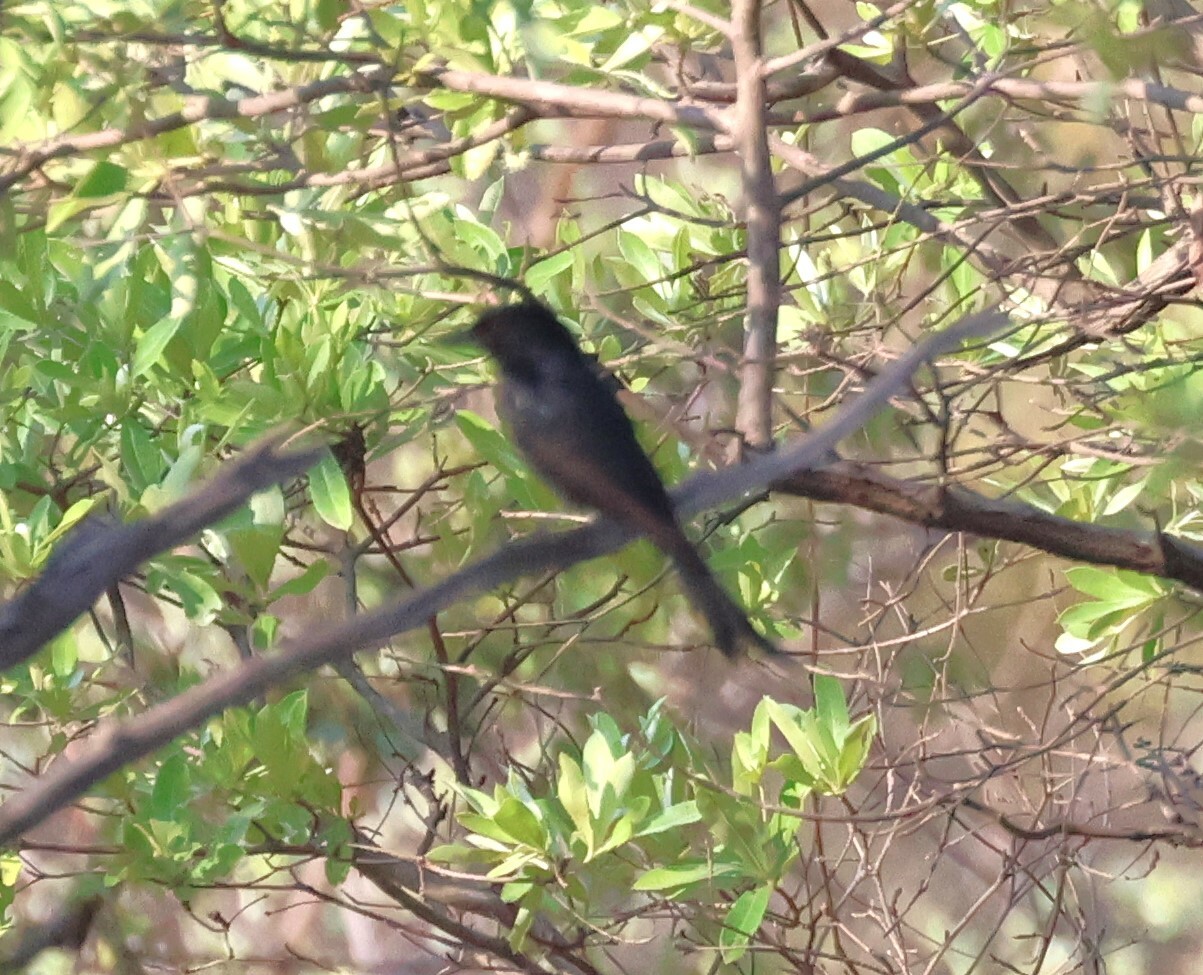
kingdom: Animalia
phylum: Chordata
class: Aves
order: Passeriformes
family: Dicruridae
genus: Dicrurus
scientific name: Dicrurus adsimilis
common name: Fork-tailed drongo
